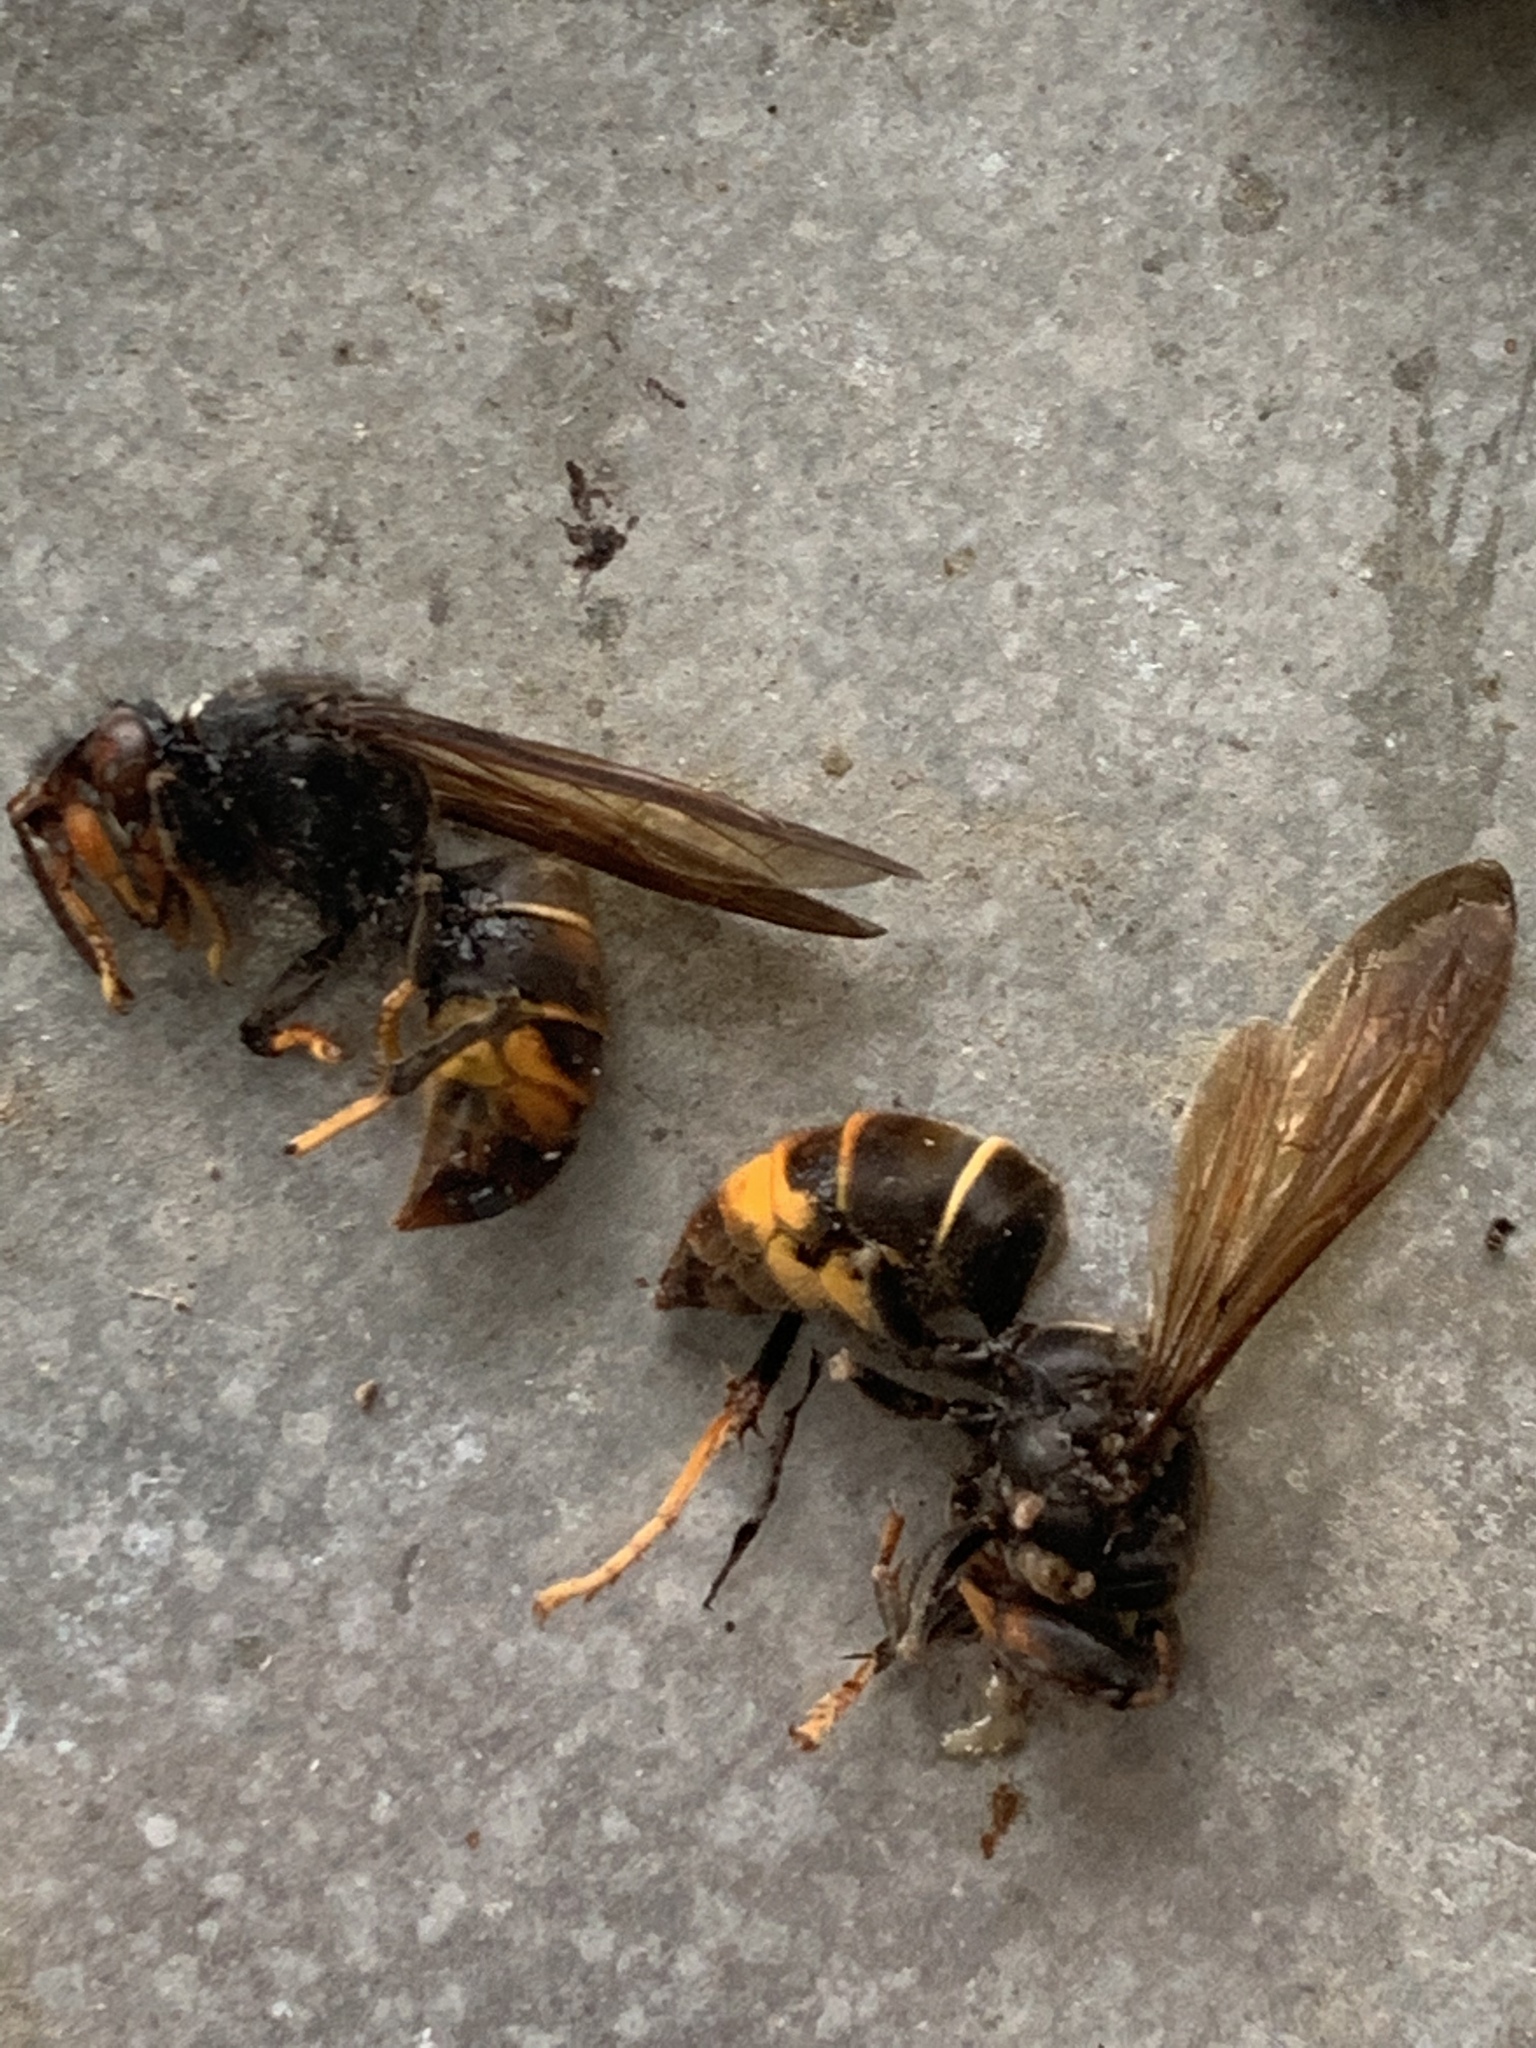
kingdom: Animalia
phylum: Arthropoda
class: Insecta
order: Hymenoptera
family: Vespidae
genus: Vespa
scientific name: Vespa velutina
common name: Asian hornet
